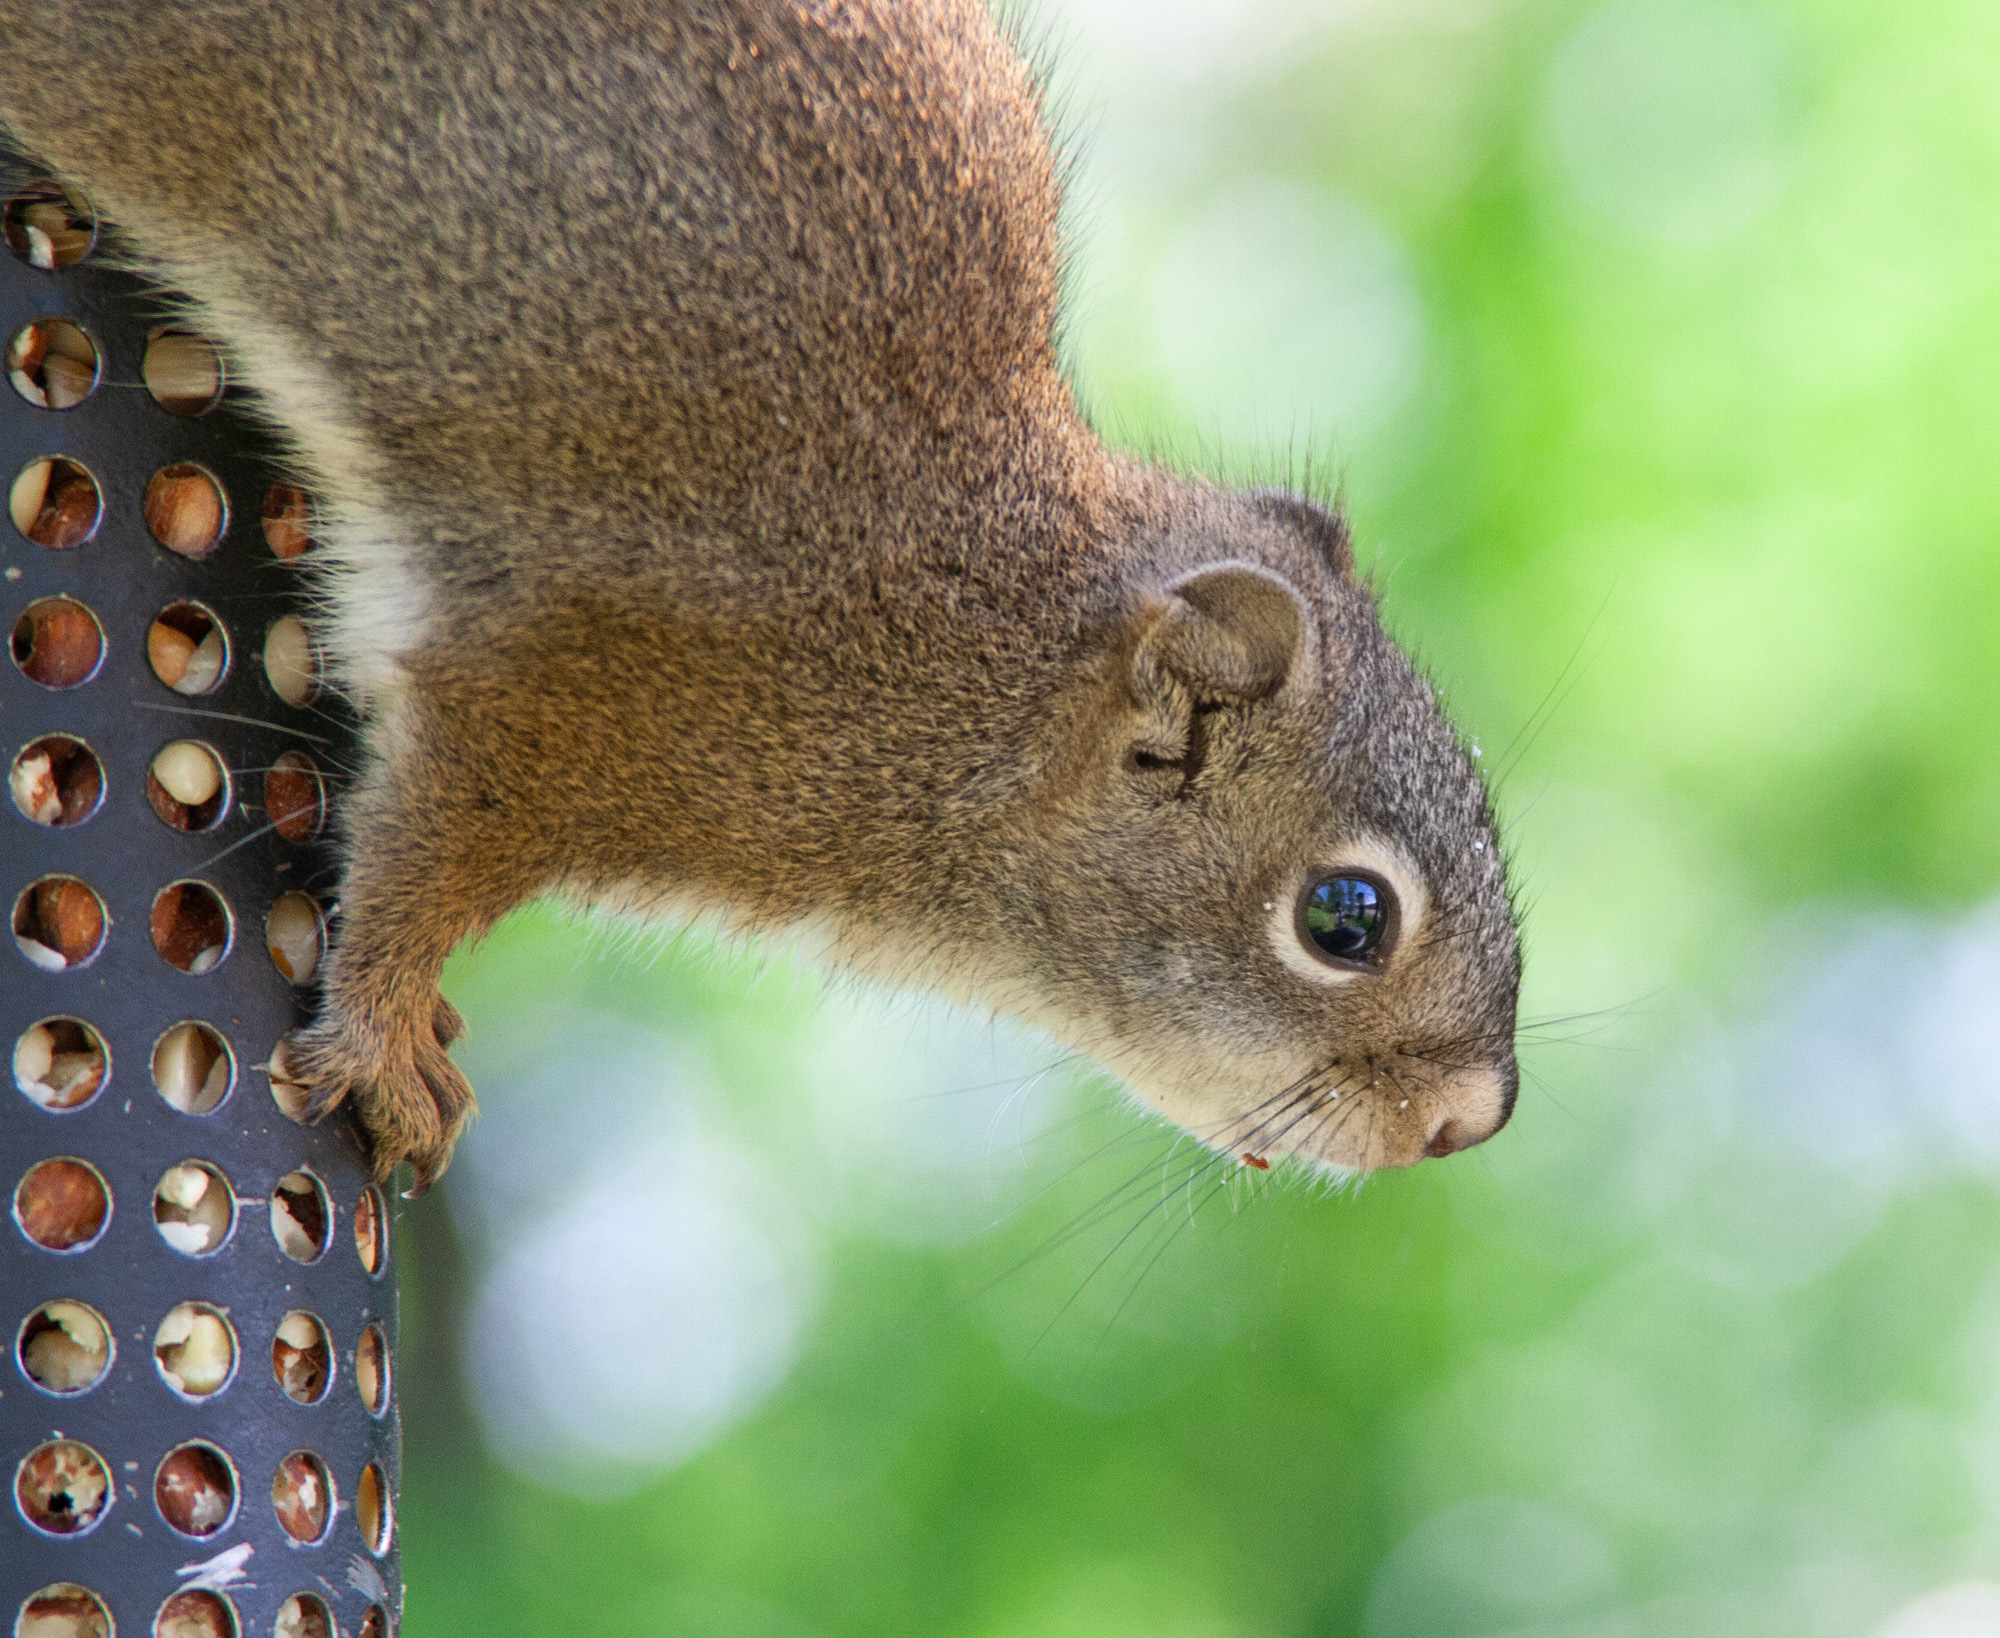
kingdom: Animalia
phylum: Chordata
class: Mammalia
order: Rodentia
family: Sciuridae
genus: Tamiasciurus
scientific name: Tamiasciurus hudsonicus
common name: Red squirrel
